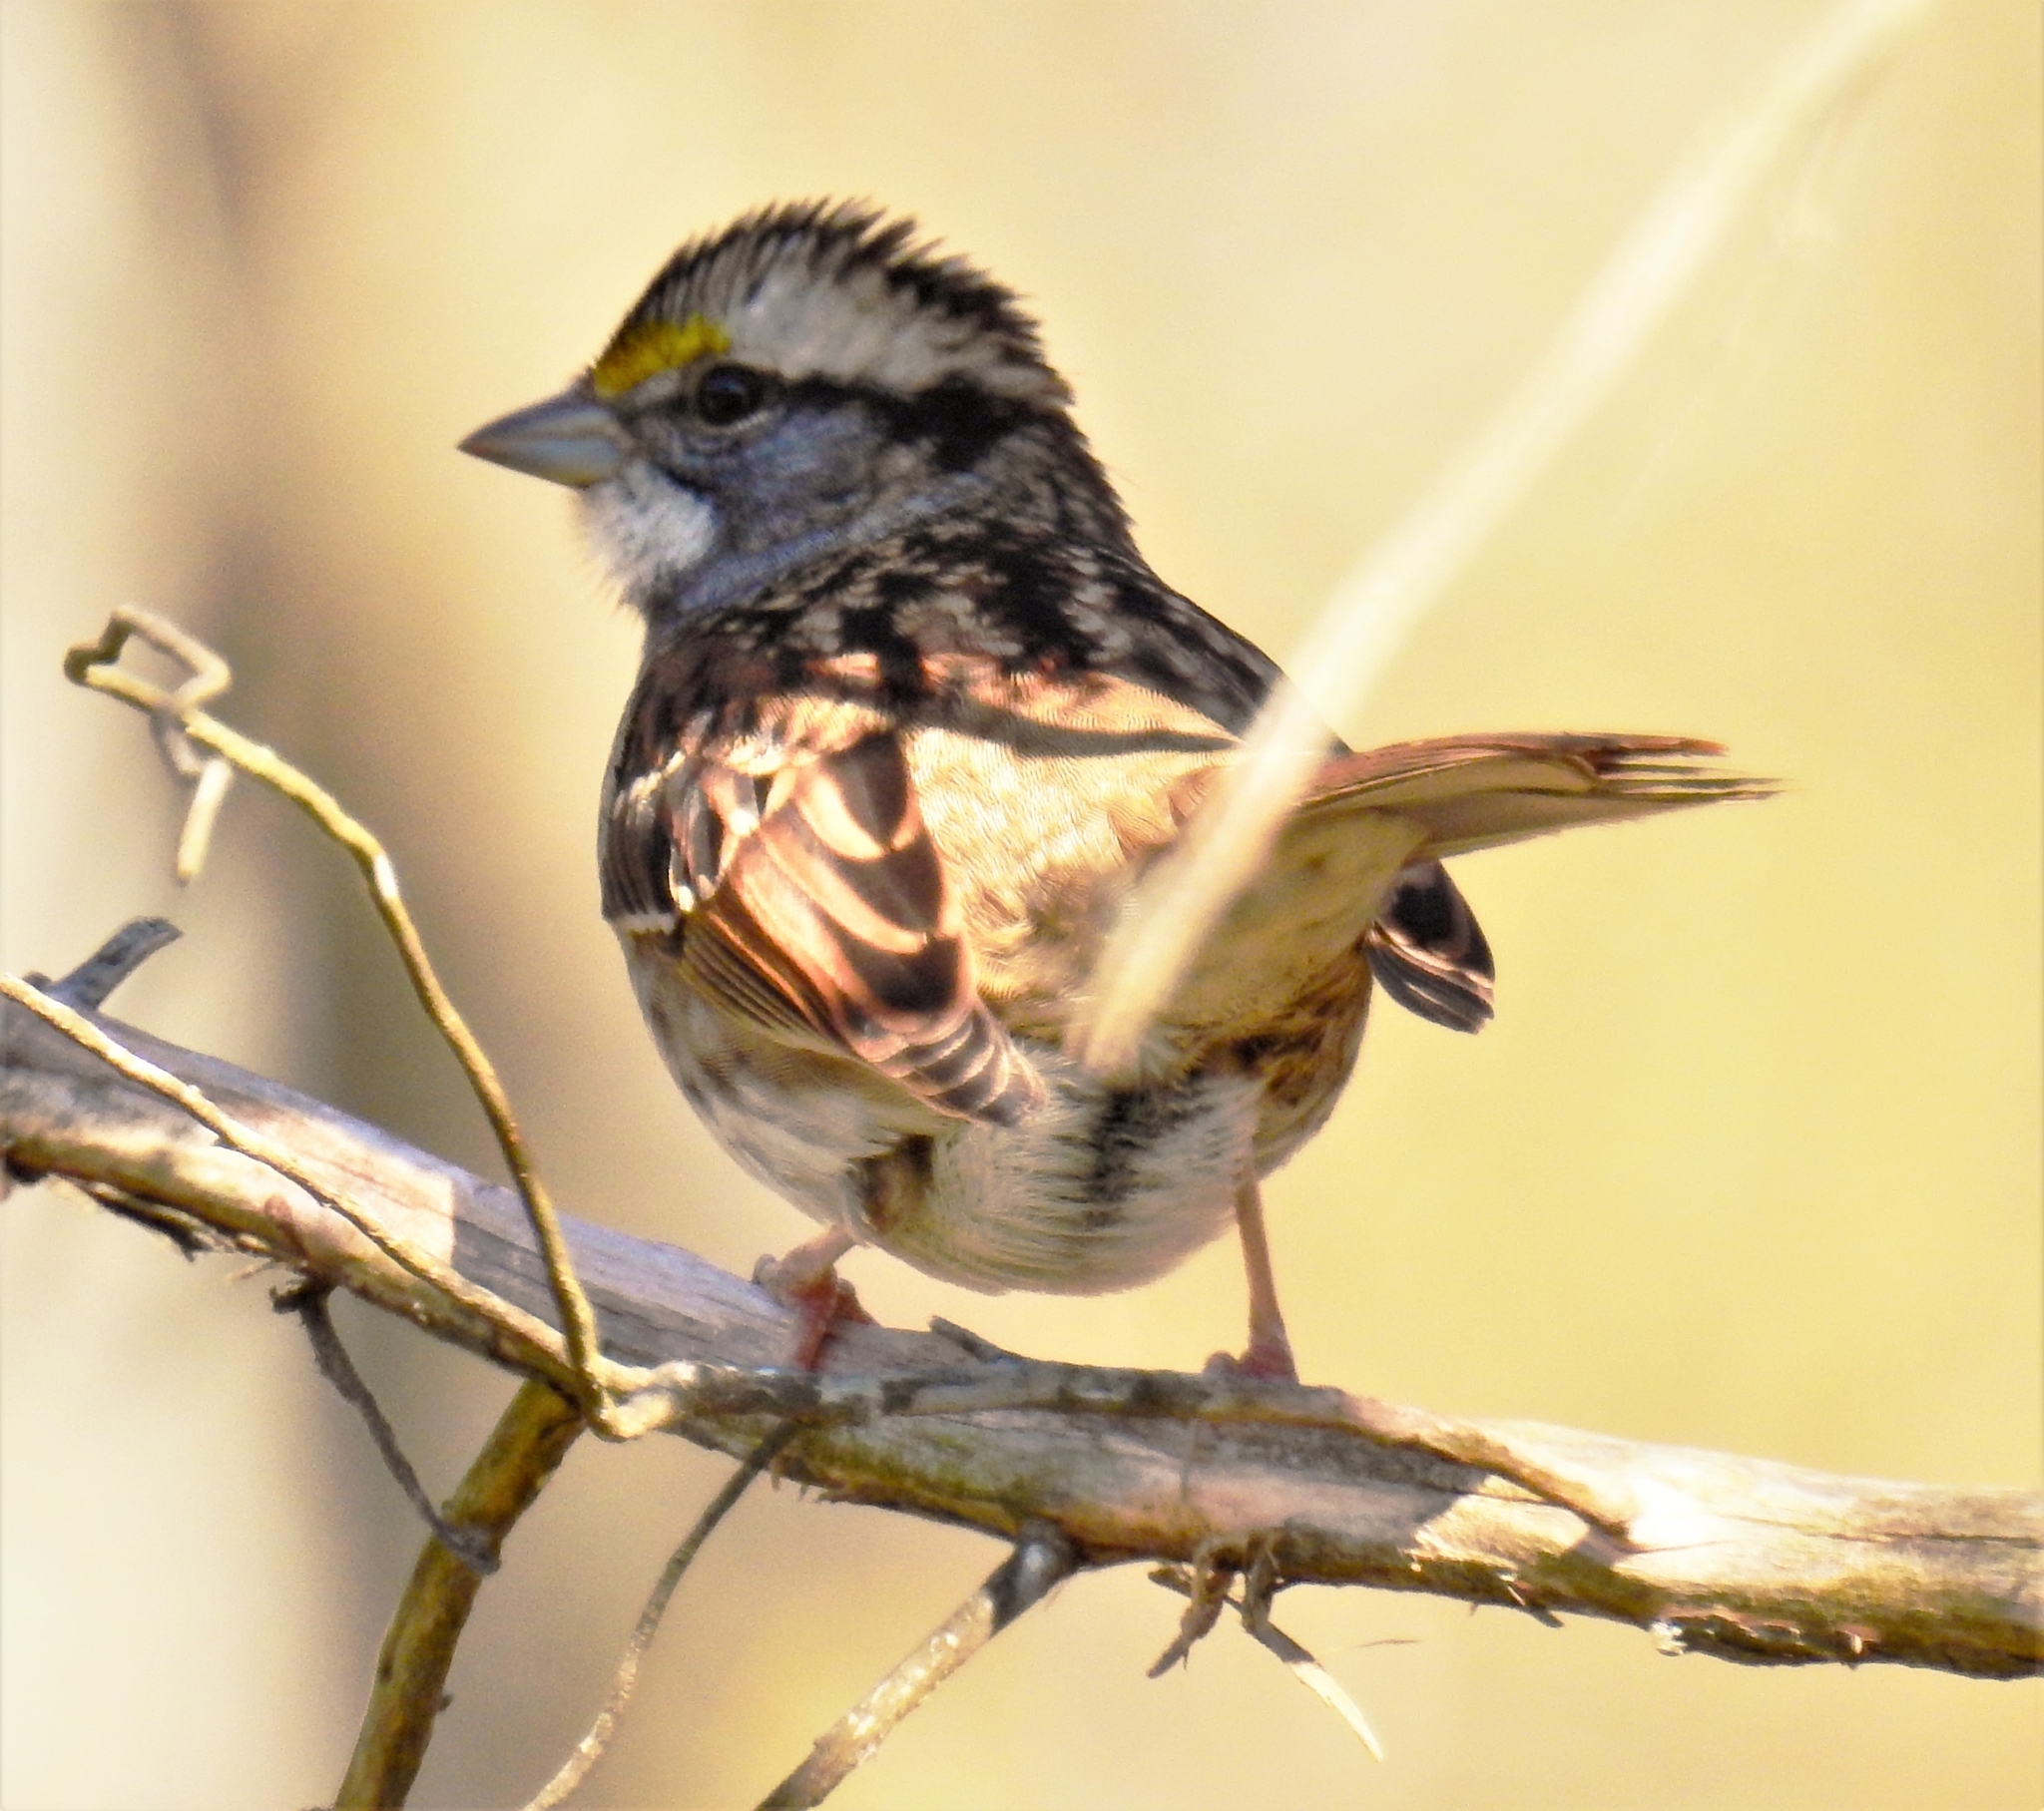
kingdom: Animalia
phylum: Chordata
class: Aves
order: Passeriformes
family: Passerellidae
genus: Zonotrichia
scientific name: Zonotrichia albicollis
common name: White-throated sparrow
